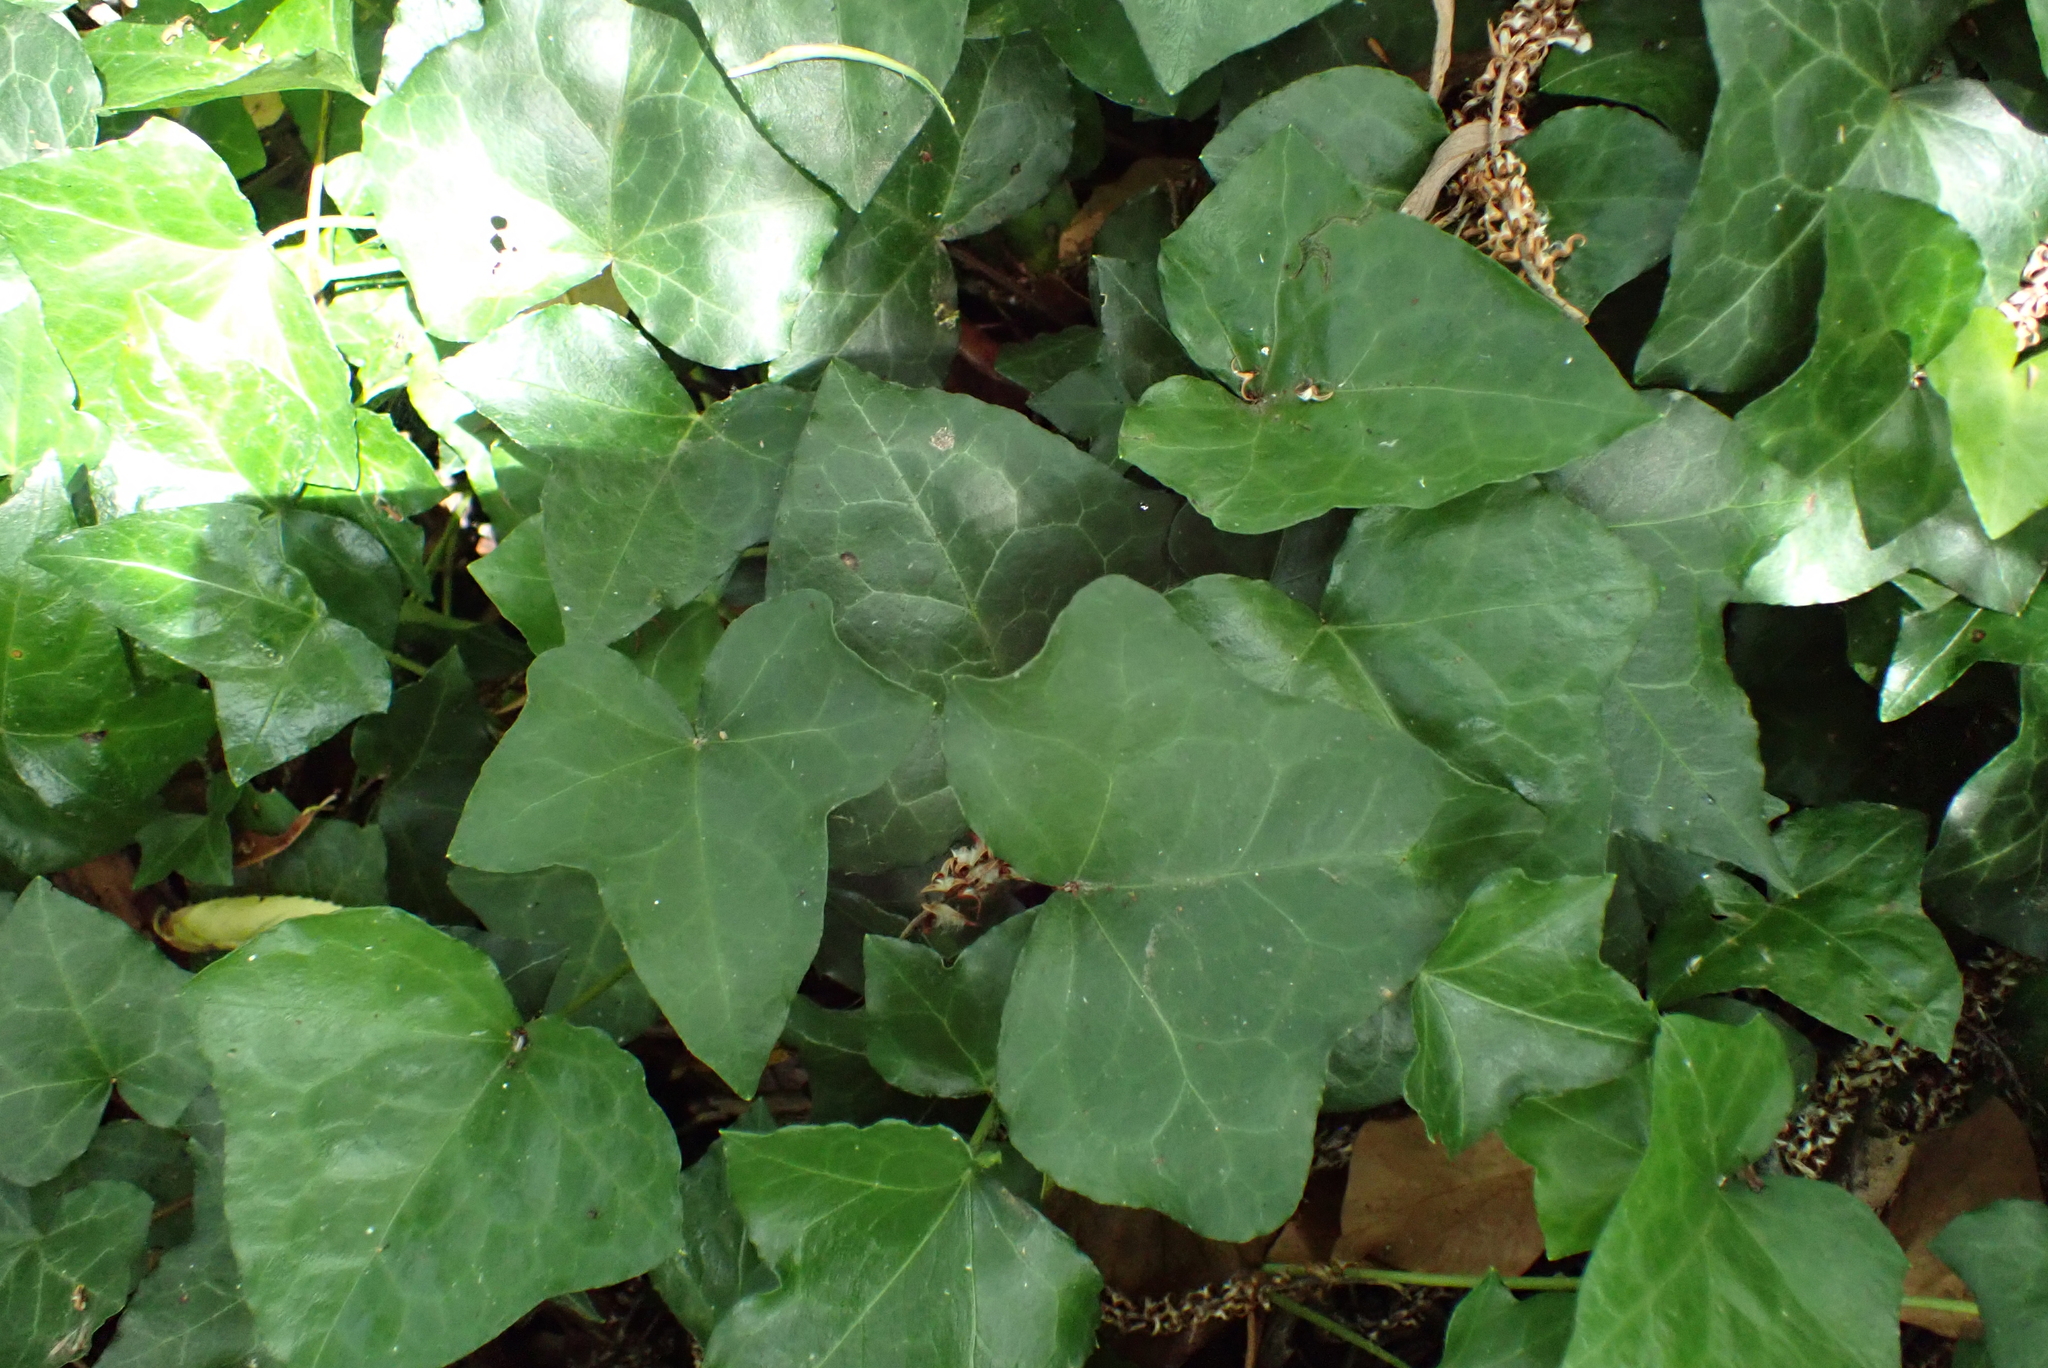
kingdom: Plantae
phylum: Tracheophyta
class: Magnoliopsida
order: Apiales
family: Araliaceae
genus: Hedera
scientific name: Hedera helix
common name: Ivy
